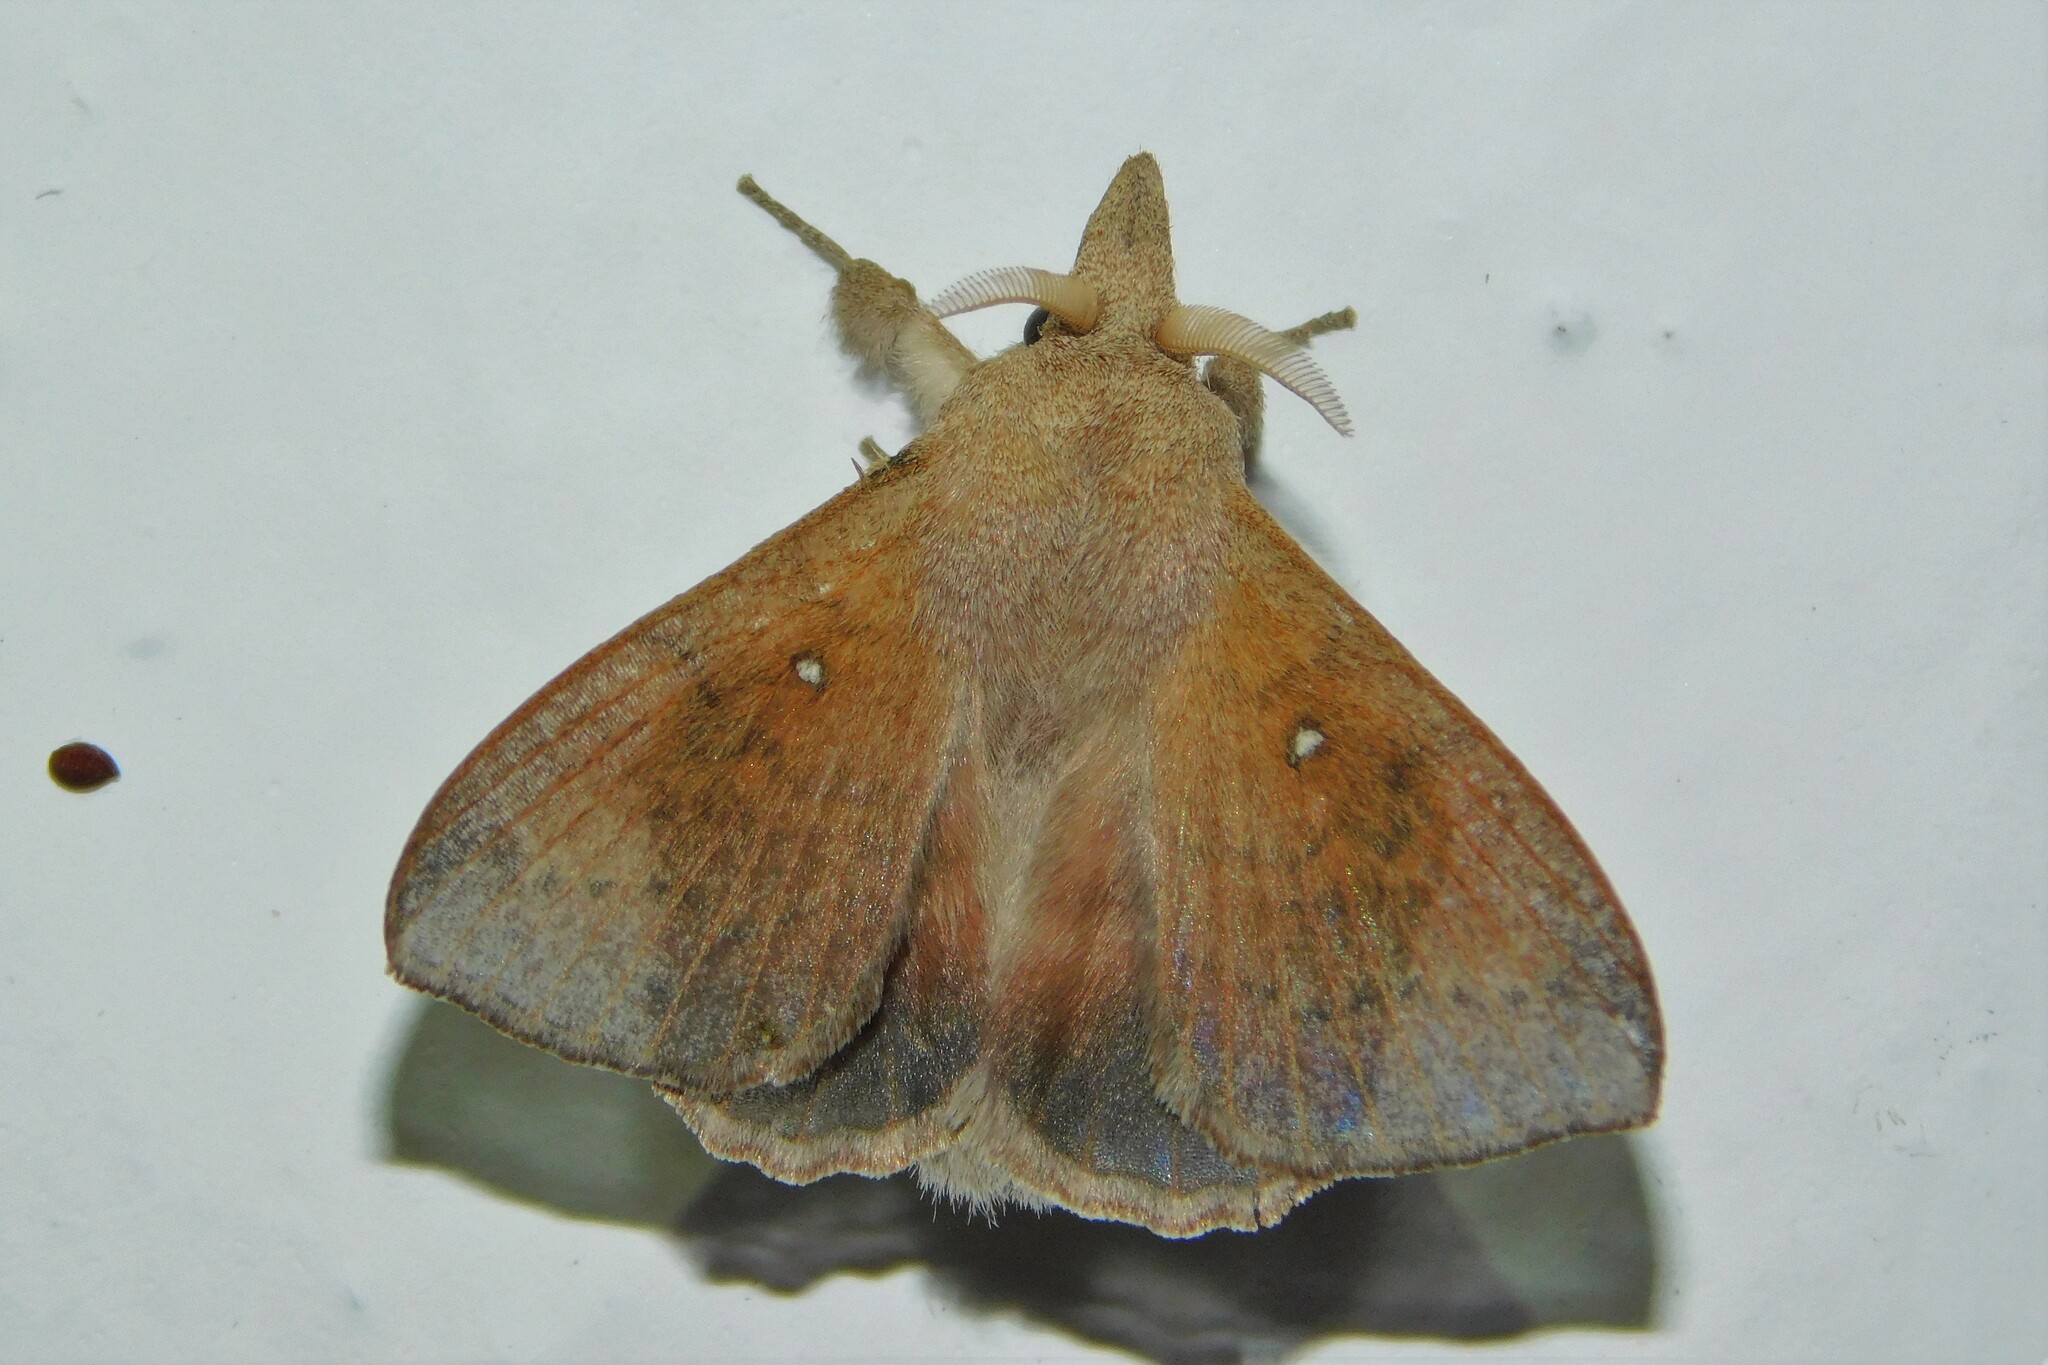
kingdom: Animalia
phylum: Arthropoda
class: Insecta
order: Lepidoptera
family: Lasiocampidae
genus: Leipoxais
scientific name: Leipoxais peraffinis
